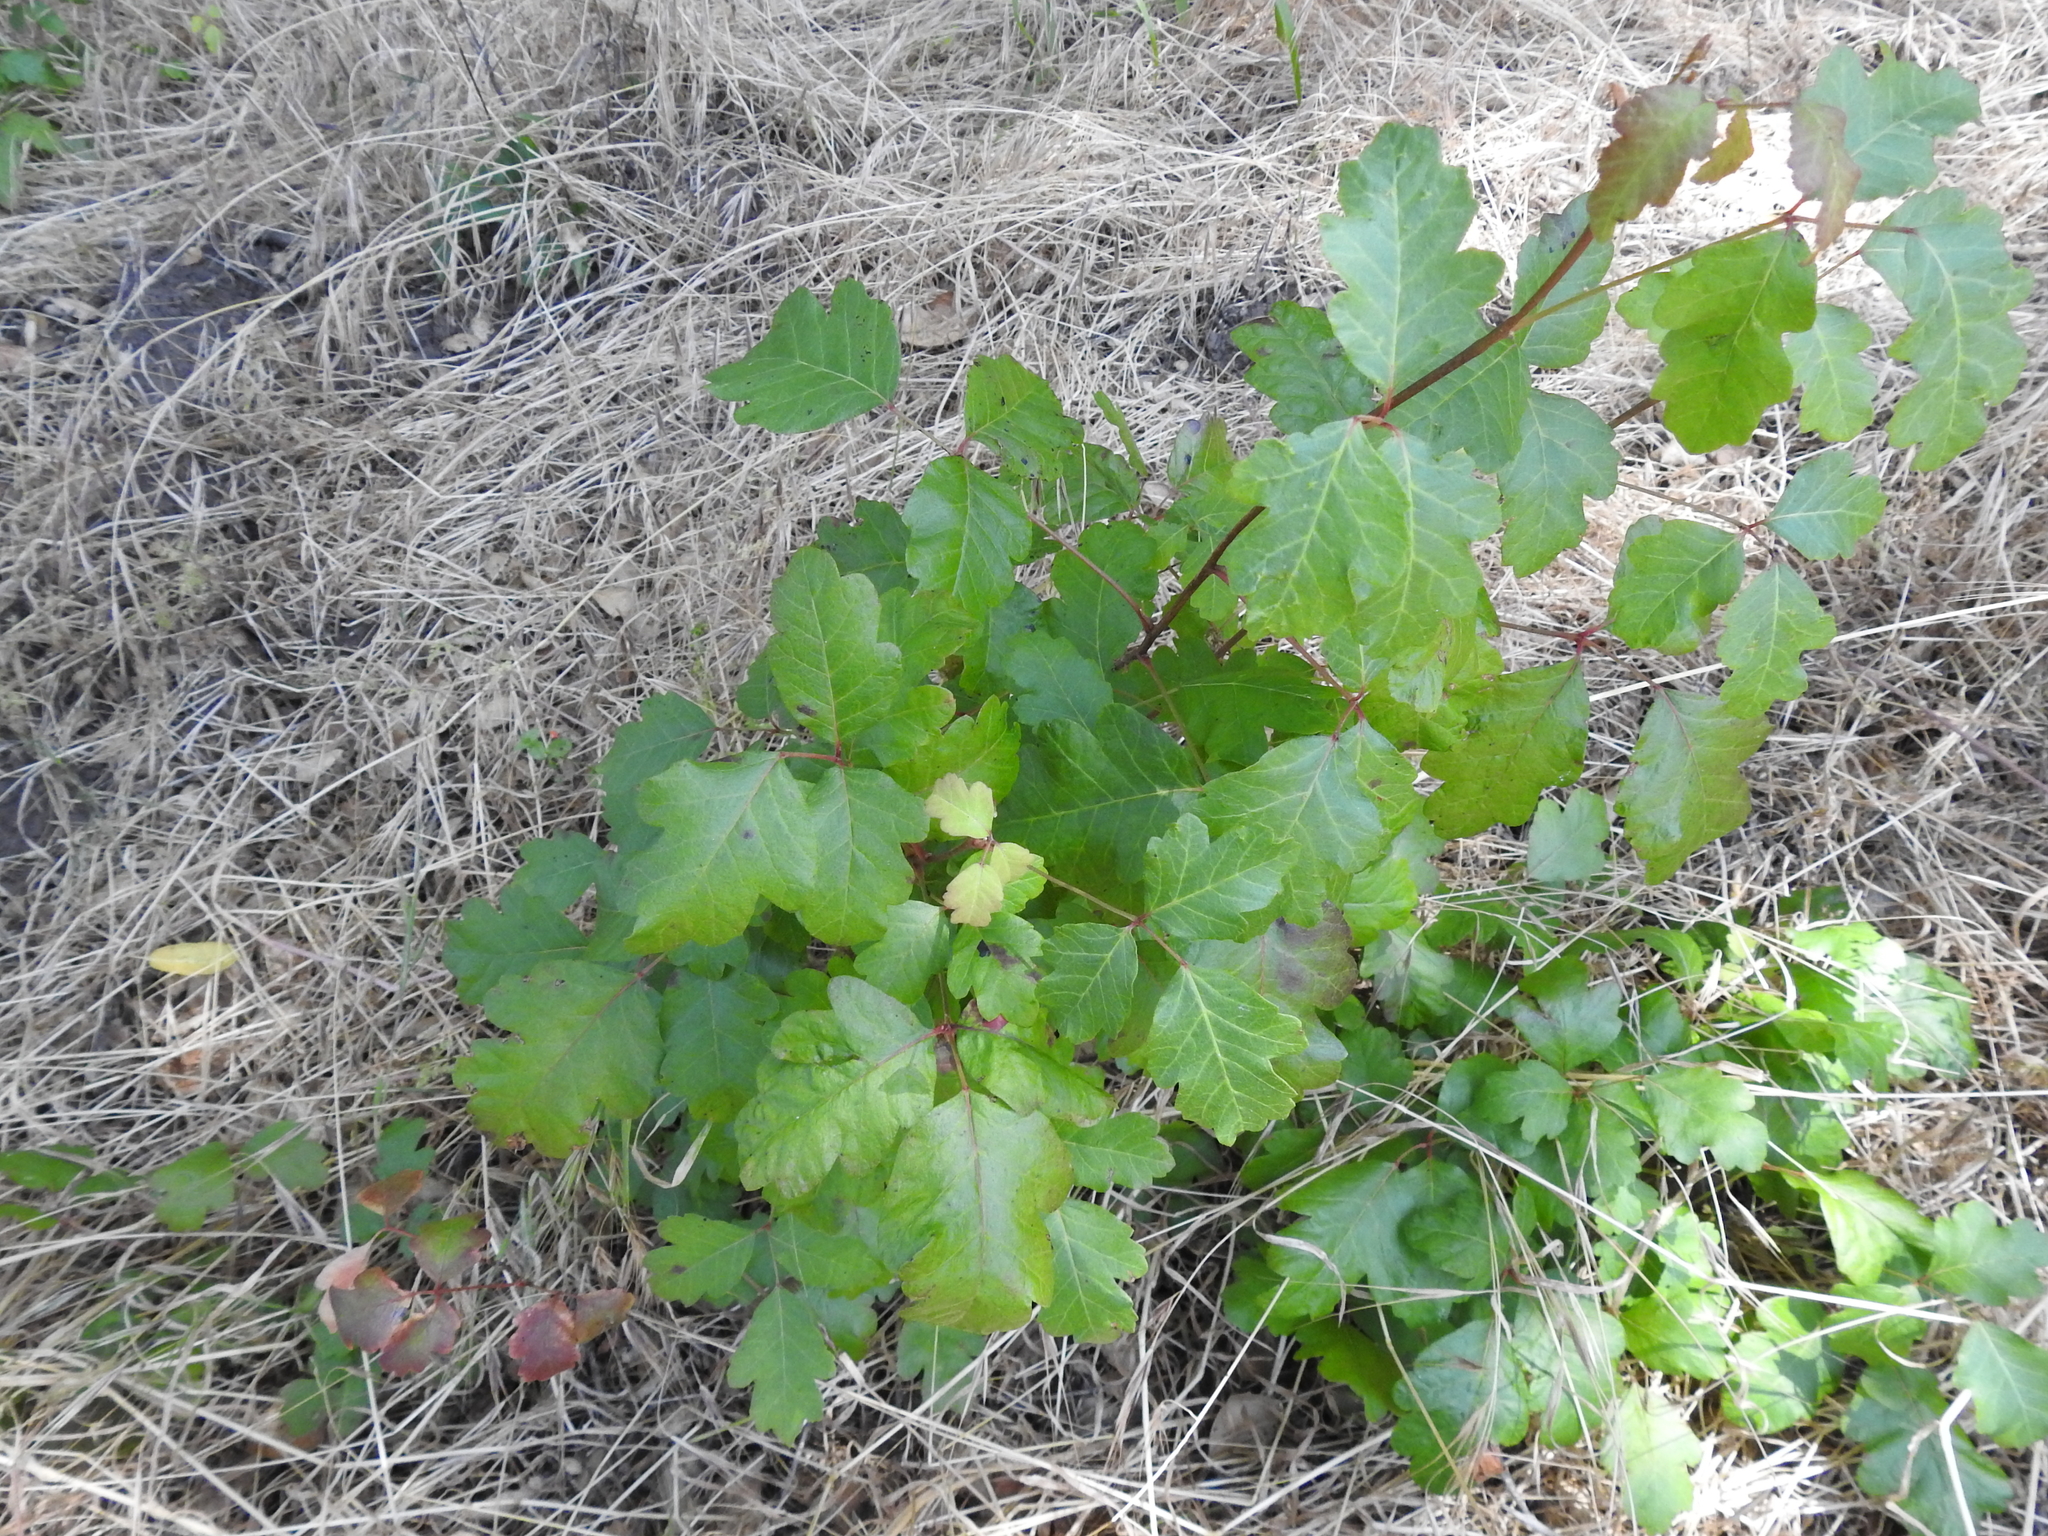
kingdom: Plantae
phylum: Tracheophyta
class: Magnoliopsida
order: Sapindales
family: Anacardiaceae
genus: Toxicodendron
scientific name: Toxicodendron diversilobum
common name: Pacific poison-oak
